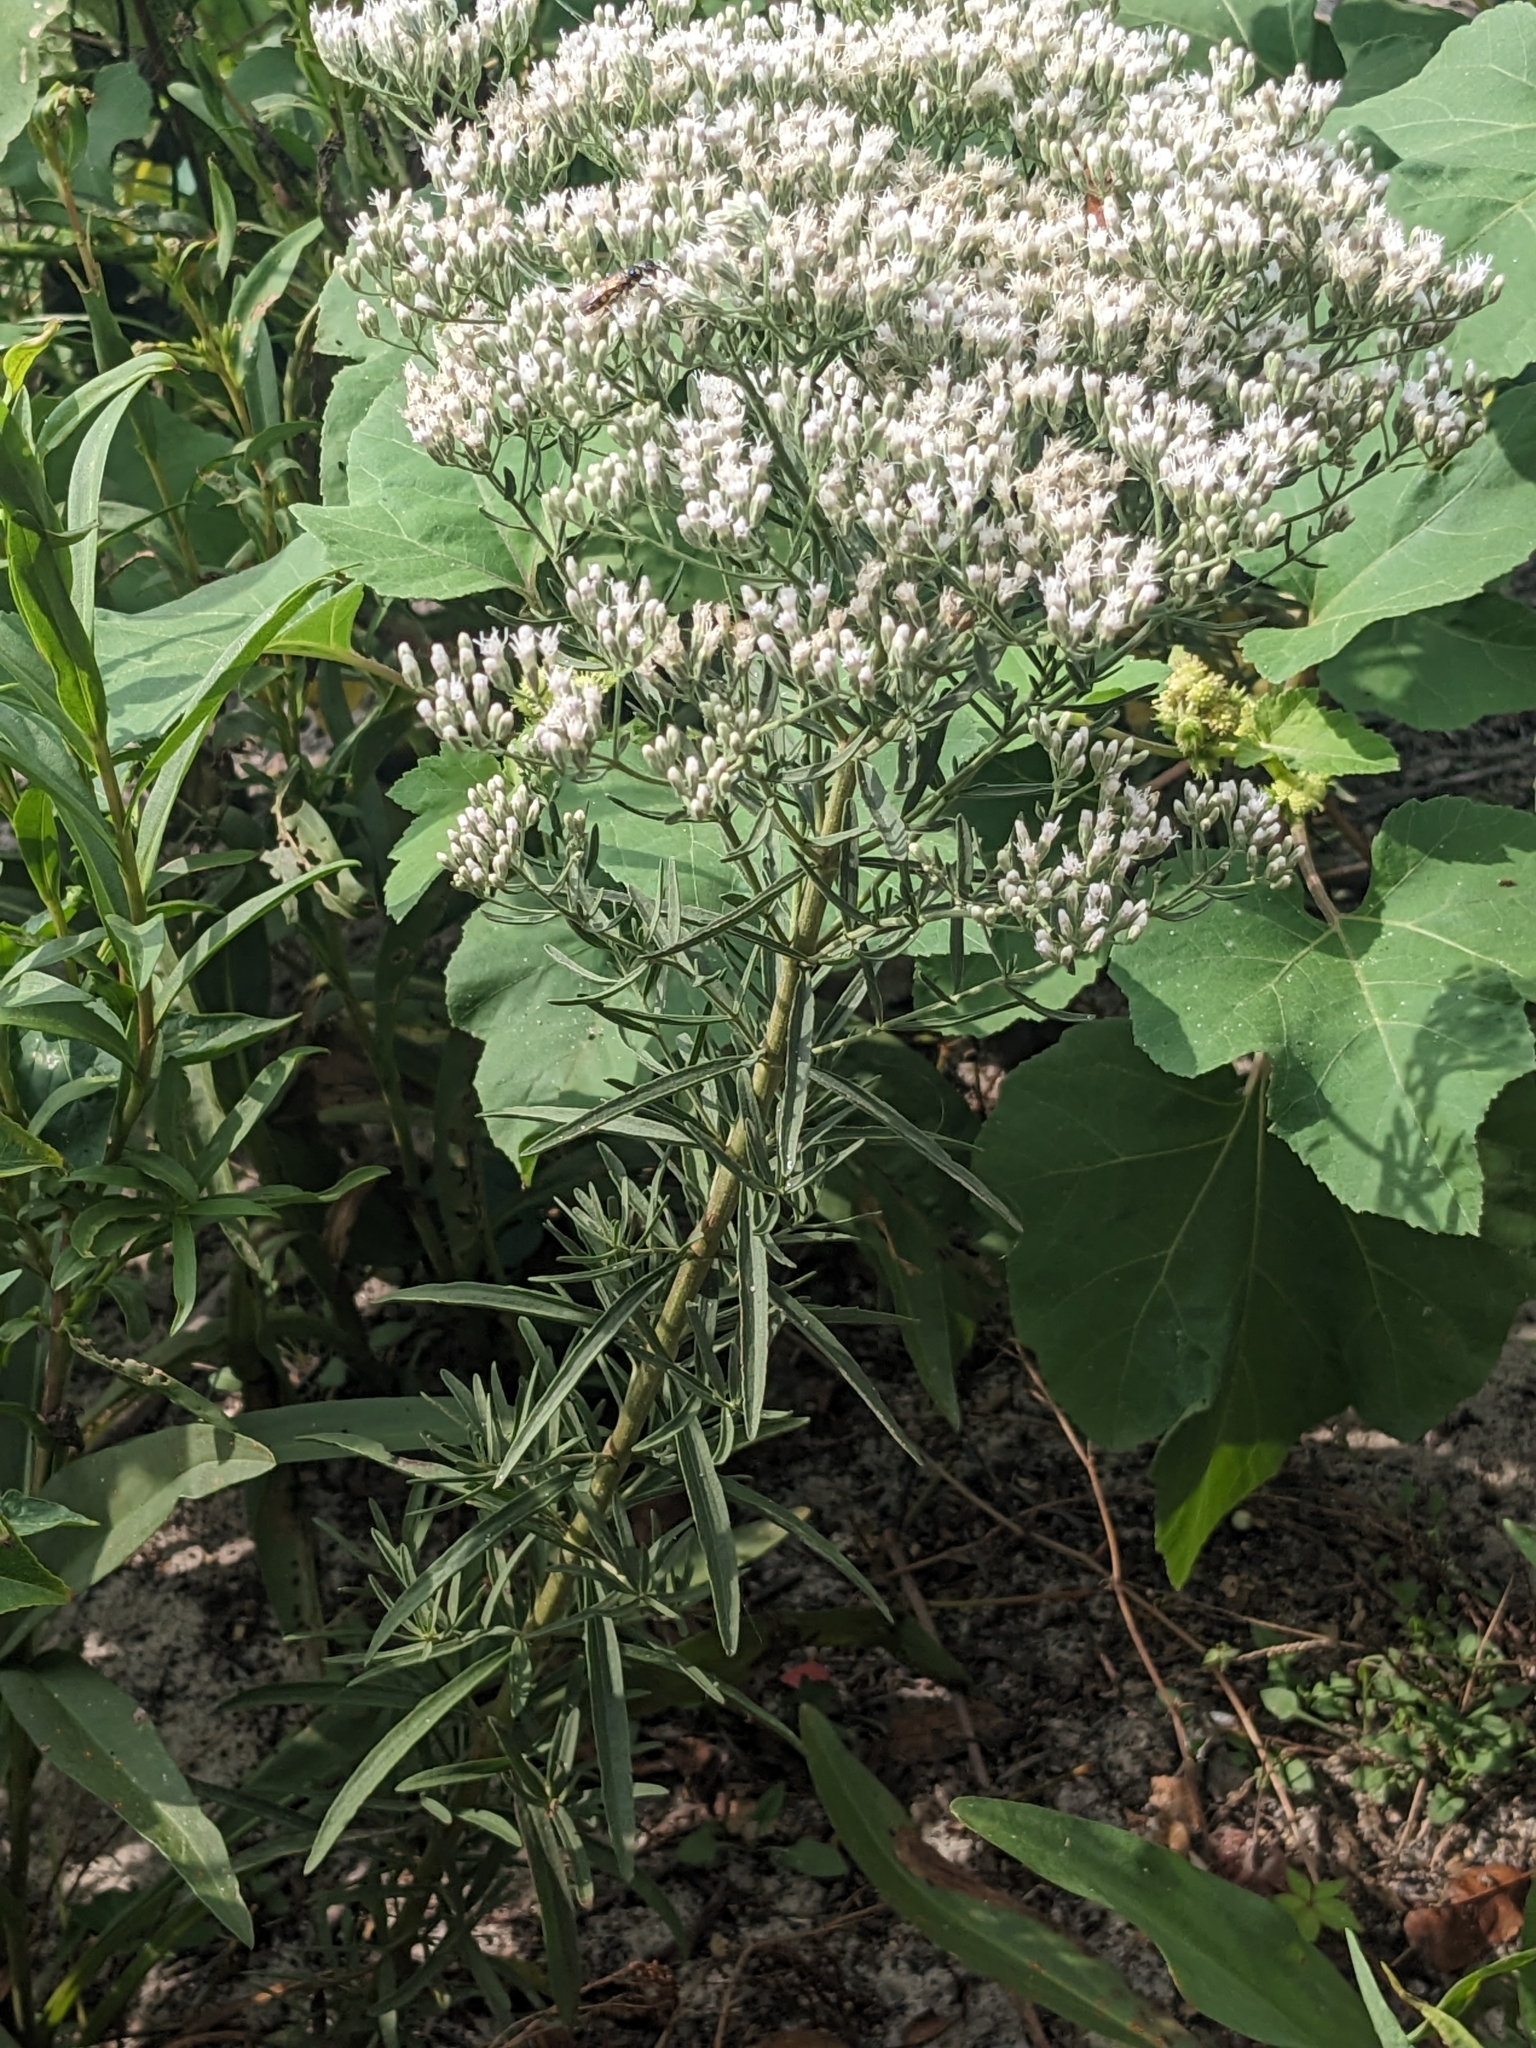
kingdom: Plantae
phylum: Tracheophyta
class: Magnoliopsida
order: Asterales
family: Asteraceae
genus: Eupatorium
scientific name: Eupatorium torreyanum
